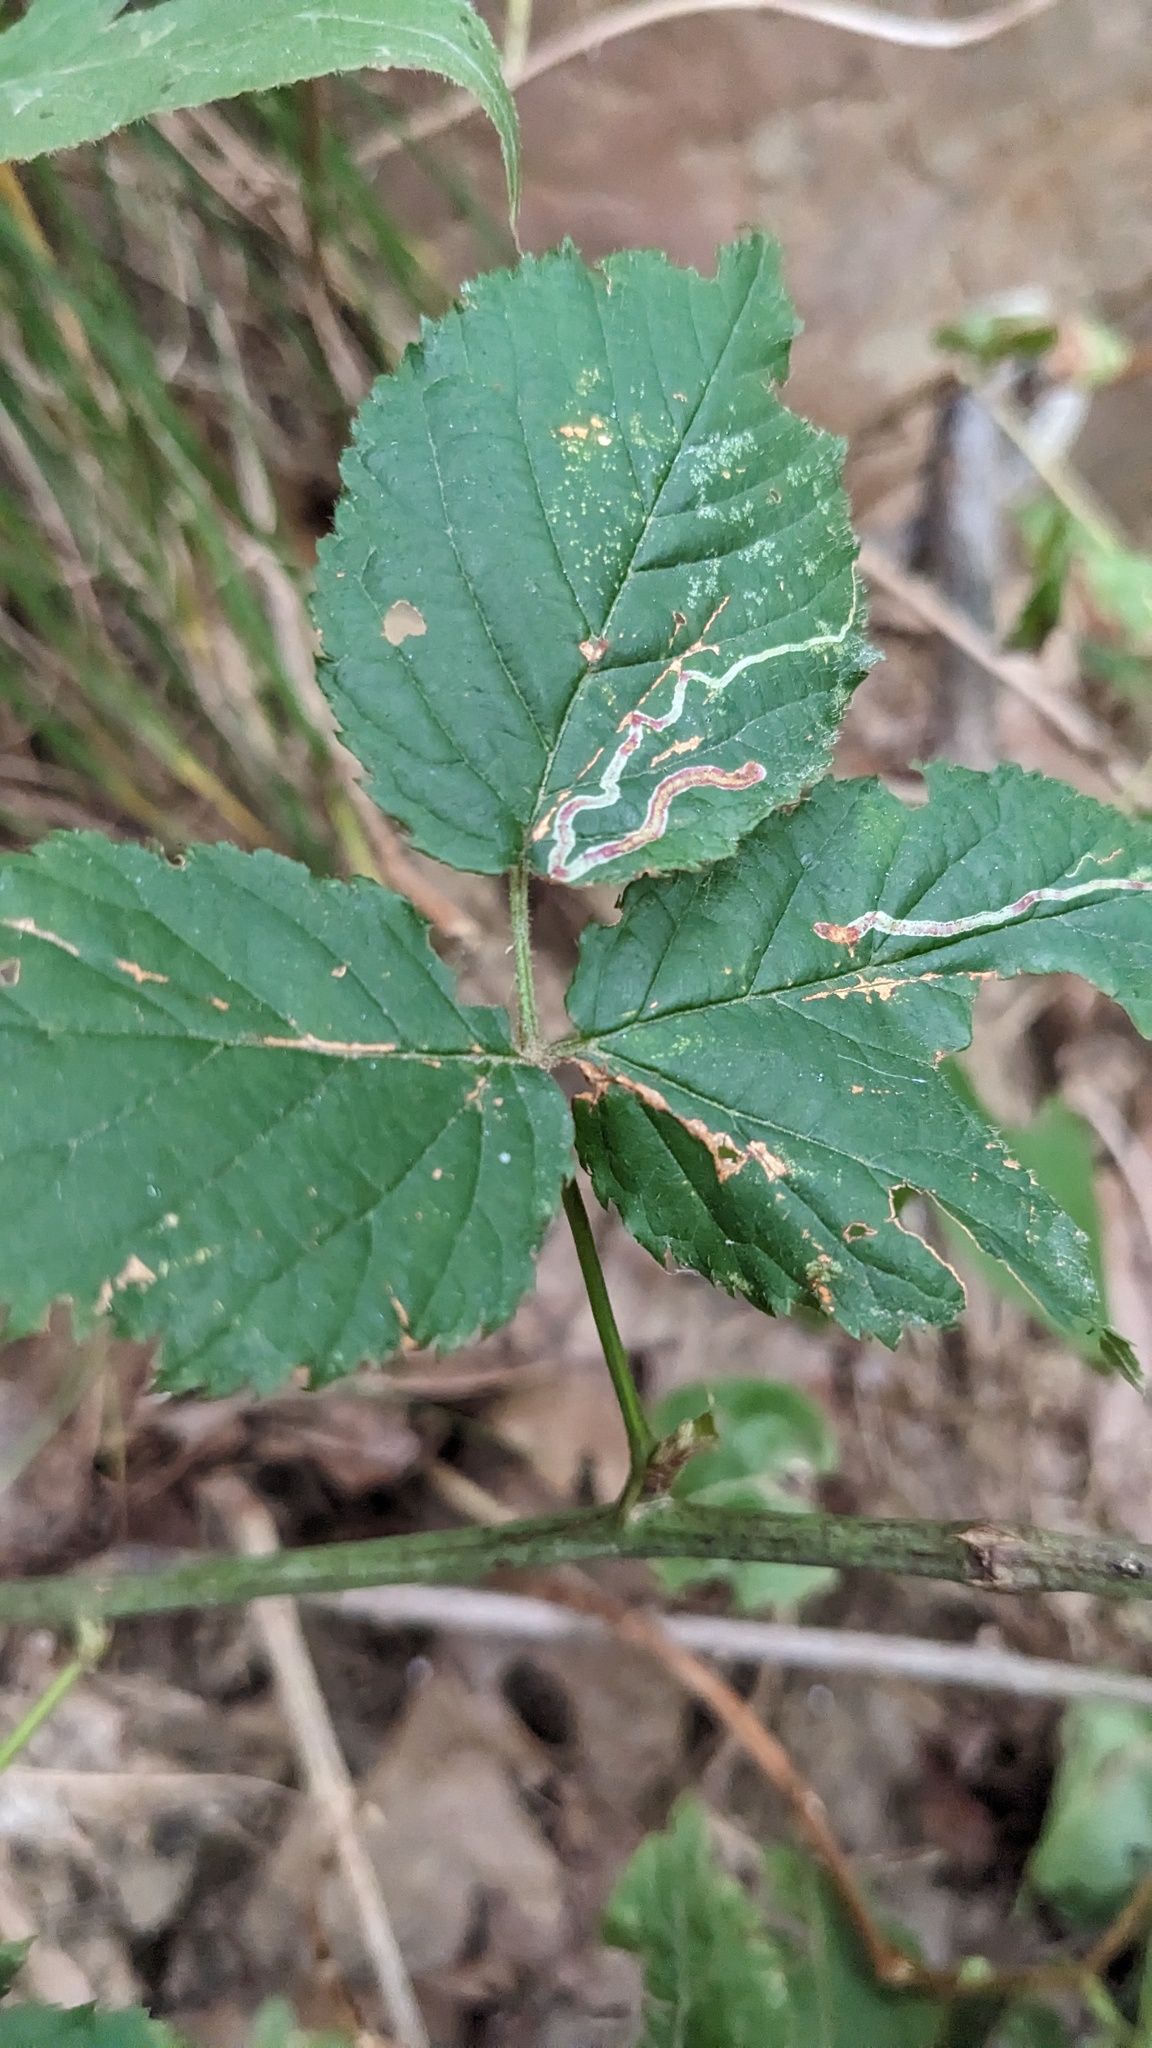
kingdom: Animalia
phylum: Arthropoda
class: Insecta
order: Diptera
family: Agromyzidae
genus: Agromyza
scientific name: Agromyza vockerothi
